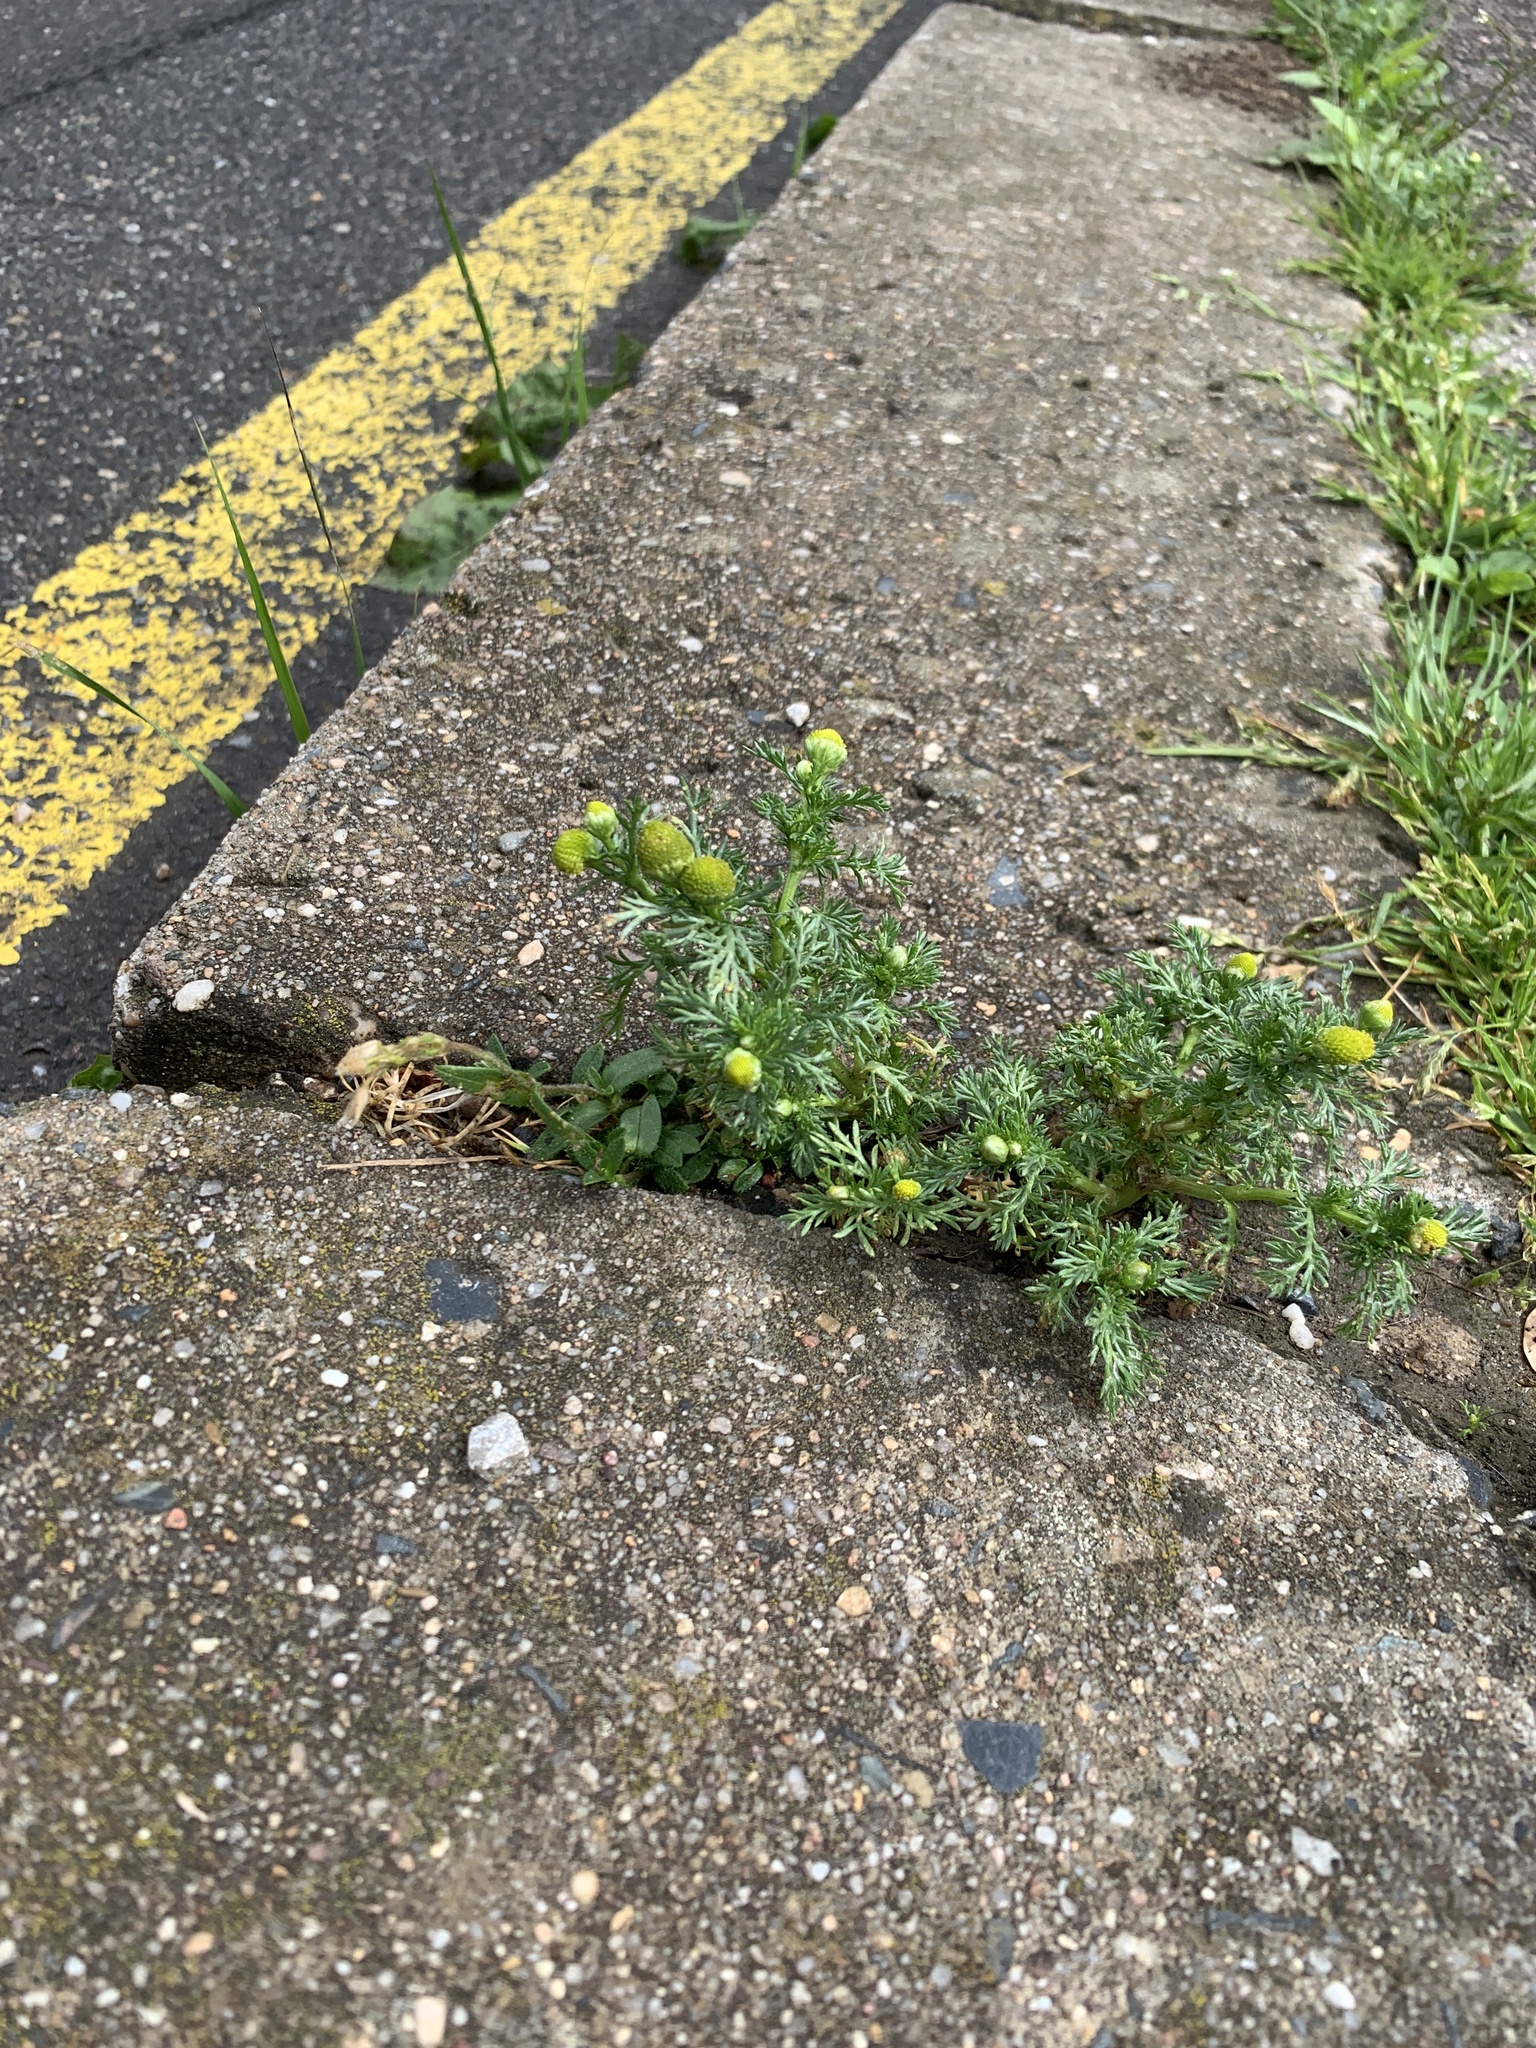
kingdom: Plantae
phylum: Tracheophyta
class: Magnoliopsida
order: Asterales
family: Asteraceae
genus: Matricaria
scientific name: Matricaria discoidea
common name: Disc mayweed
